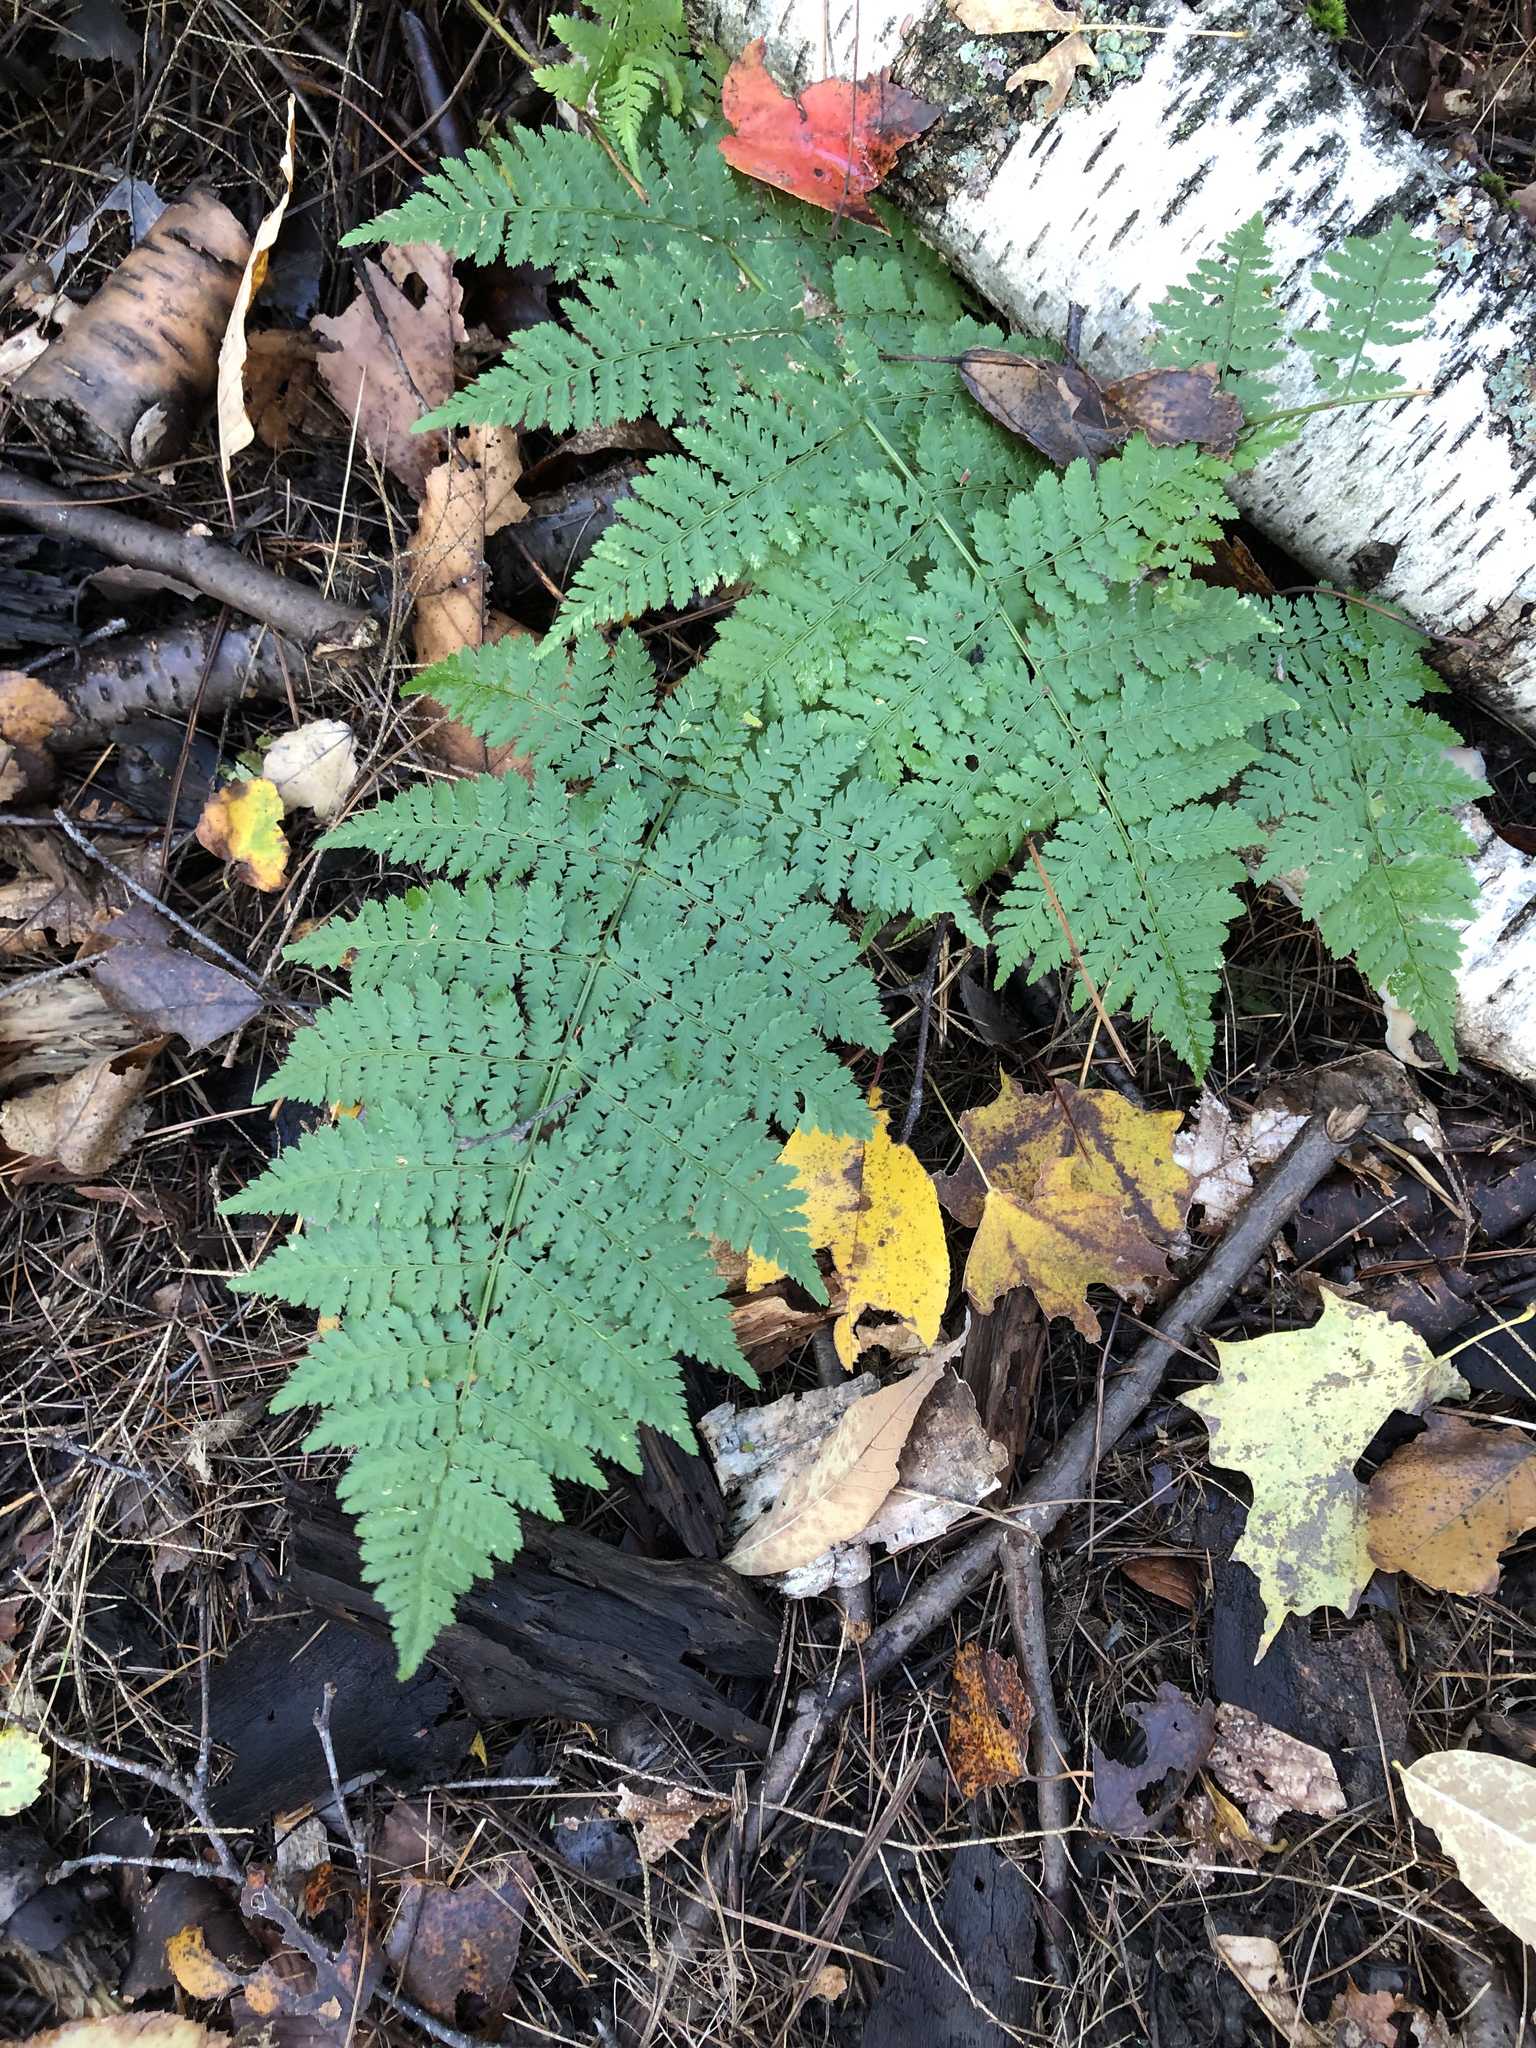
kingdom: Plantae
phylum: Tracheophyta
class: Polypodiopsida
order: Polypodiales
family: Dryopteridaceae
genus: Dryopteris
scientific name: Dryopteris intermedia
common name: Evergreen wood fern
